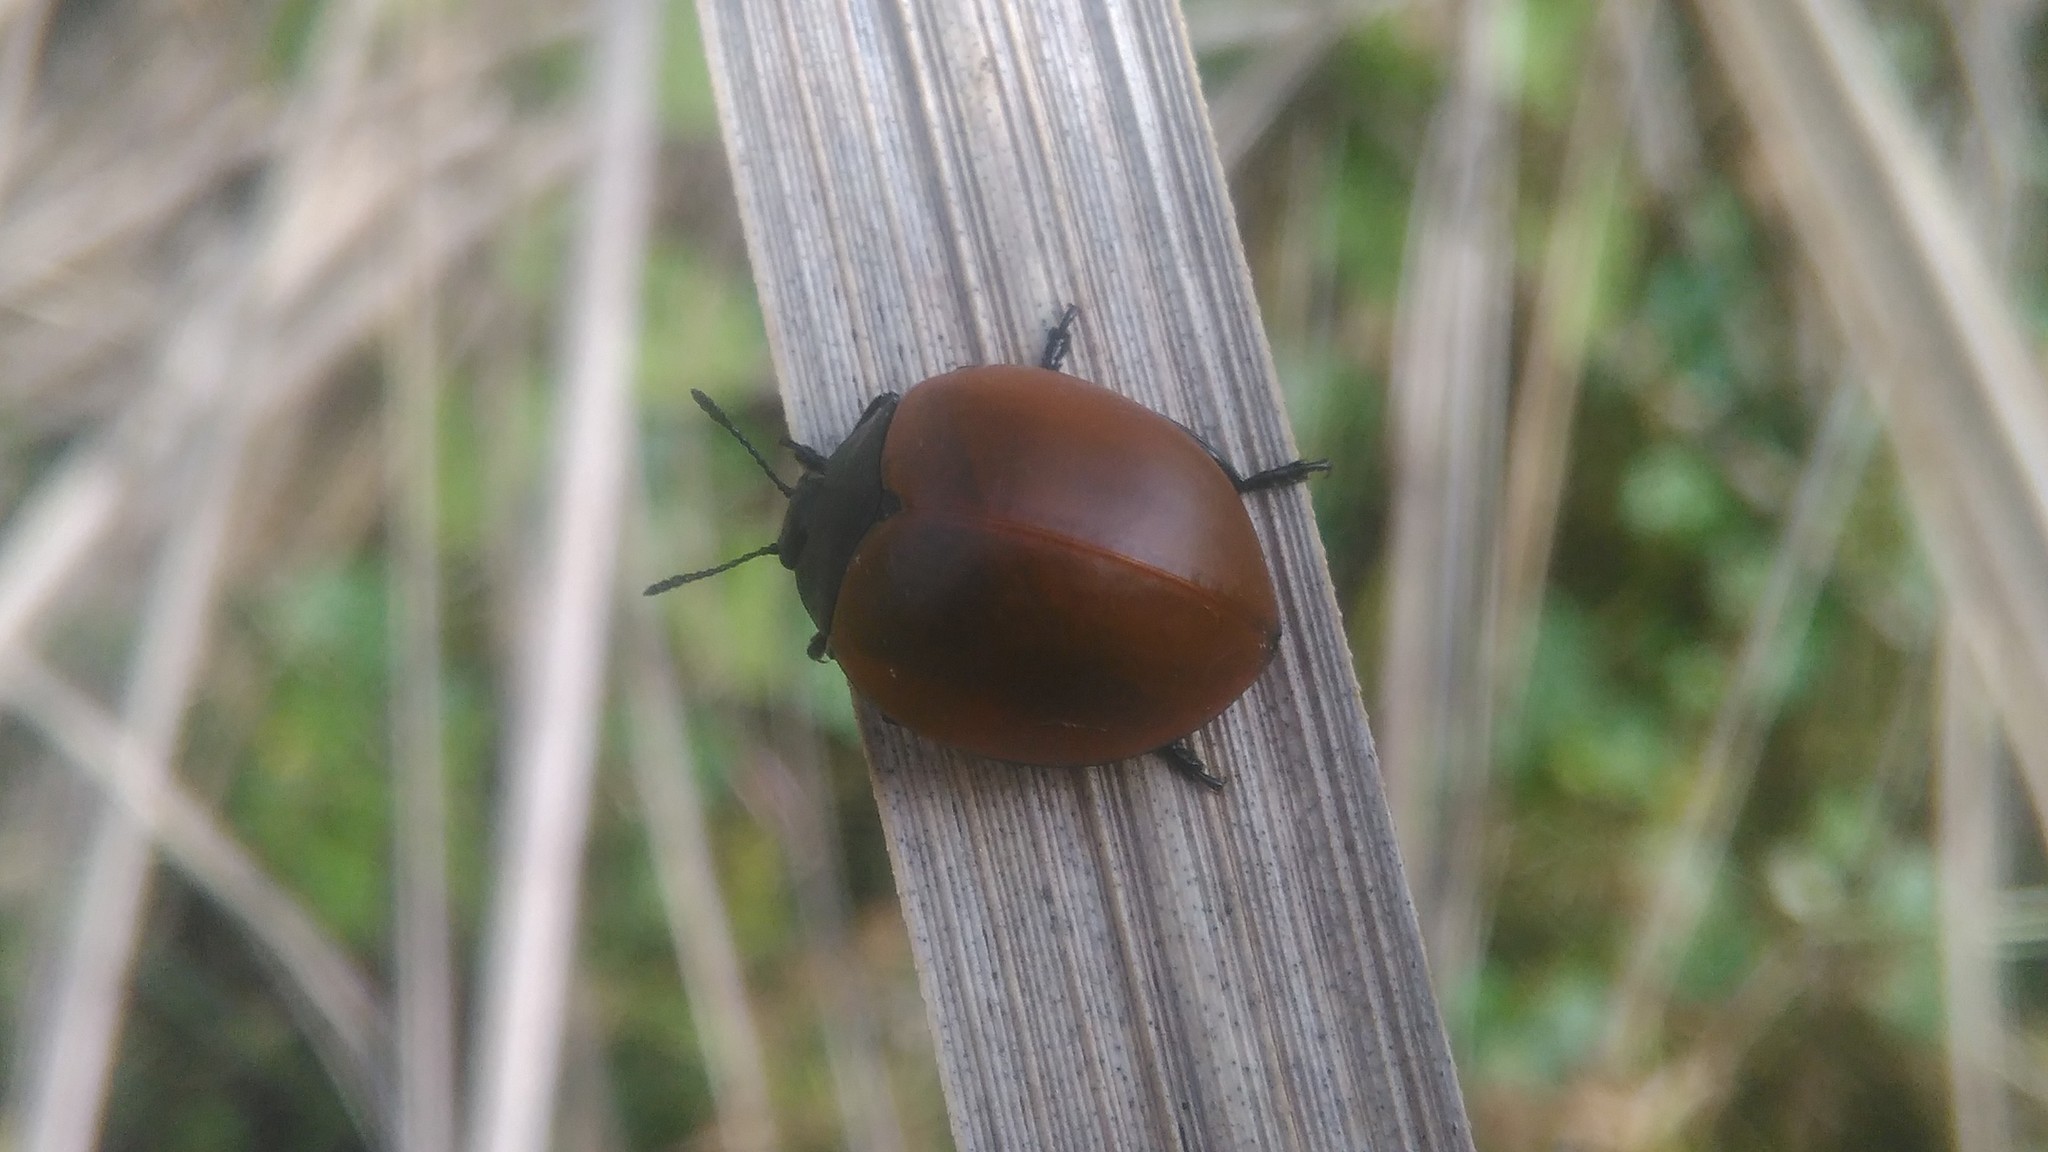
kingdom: Animalia
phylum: Arthropoda
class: Insecta
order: Coleoptera
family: Erotylidae
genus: Aegithus
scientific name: Aegithus clavicornis
